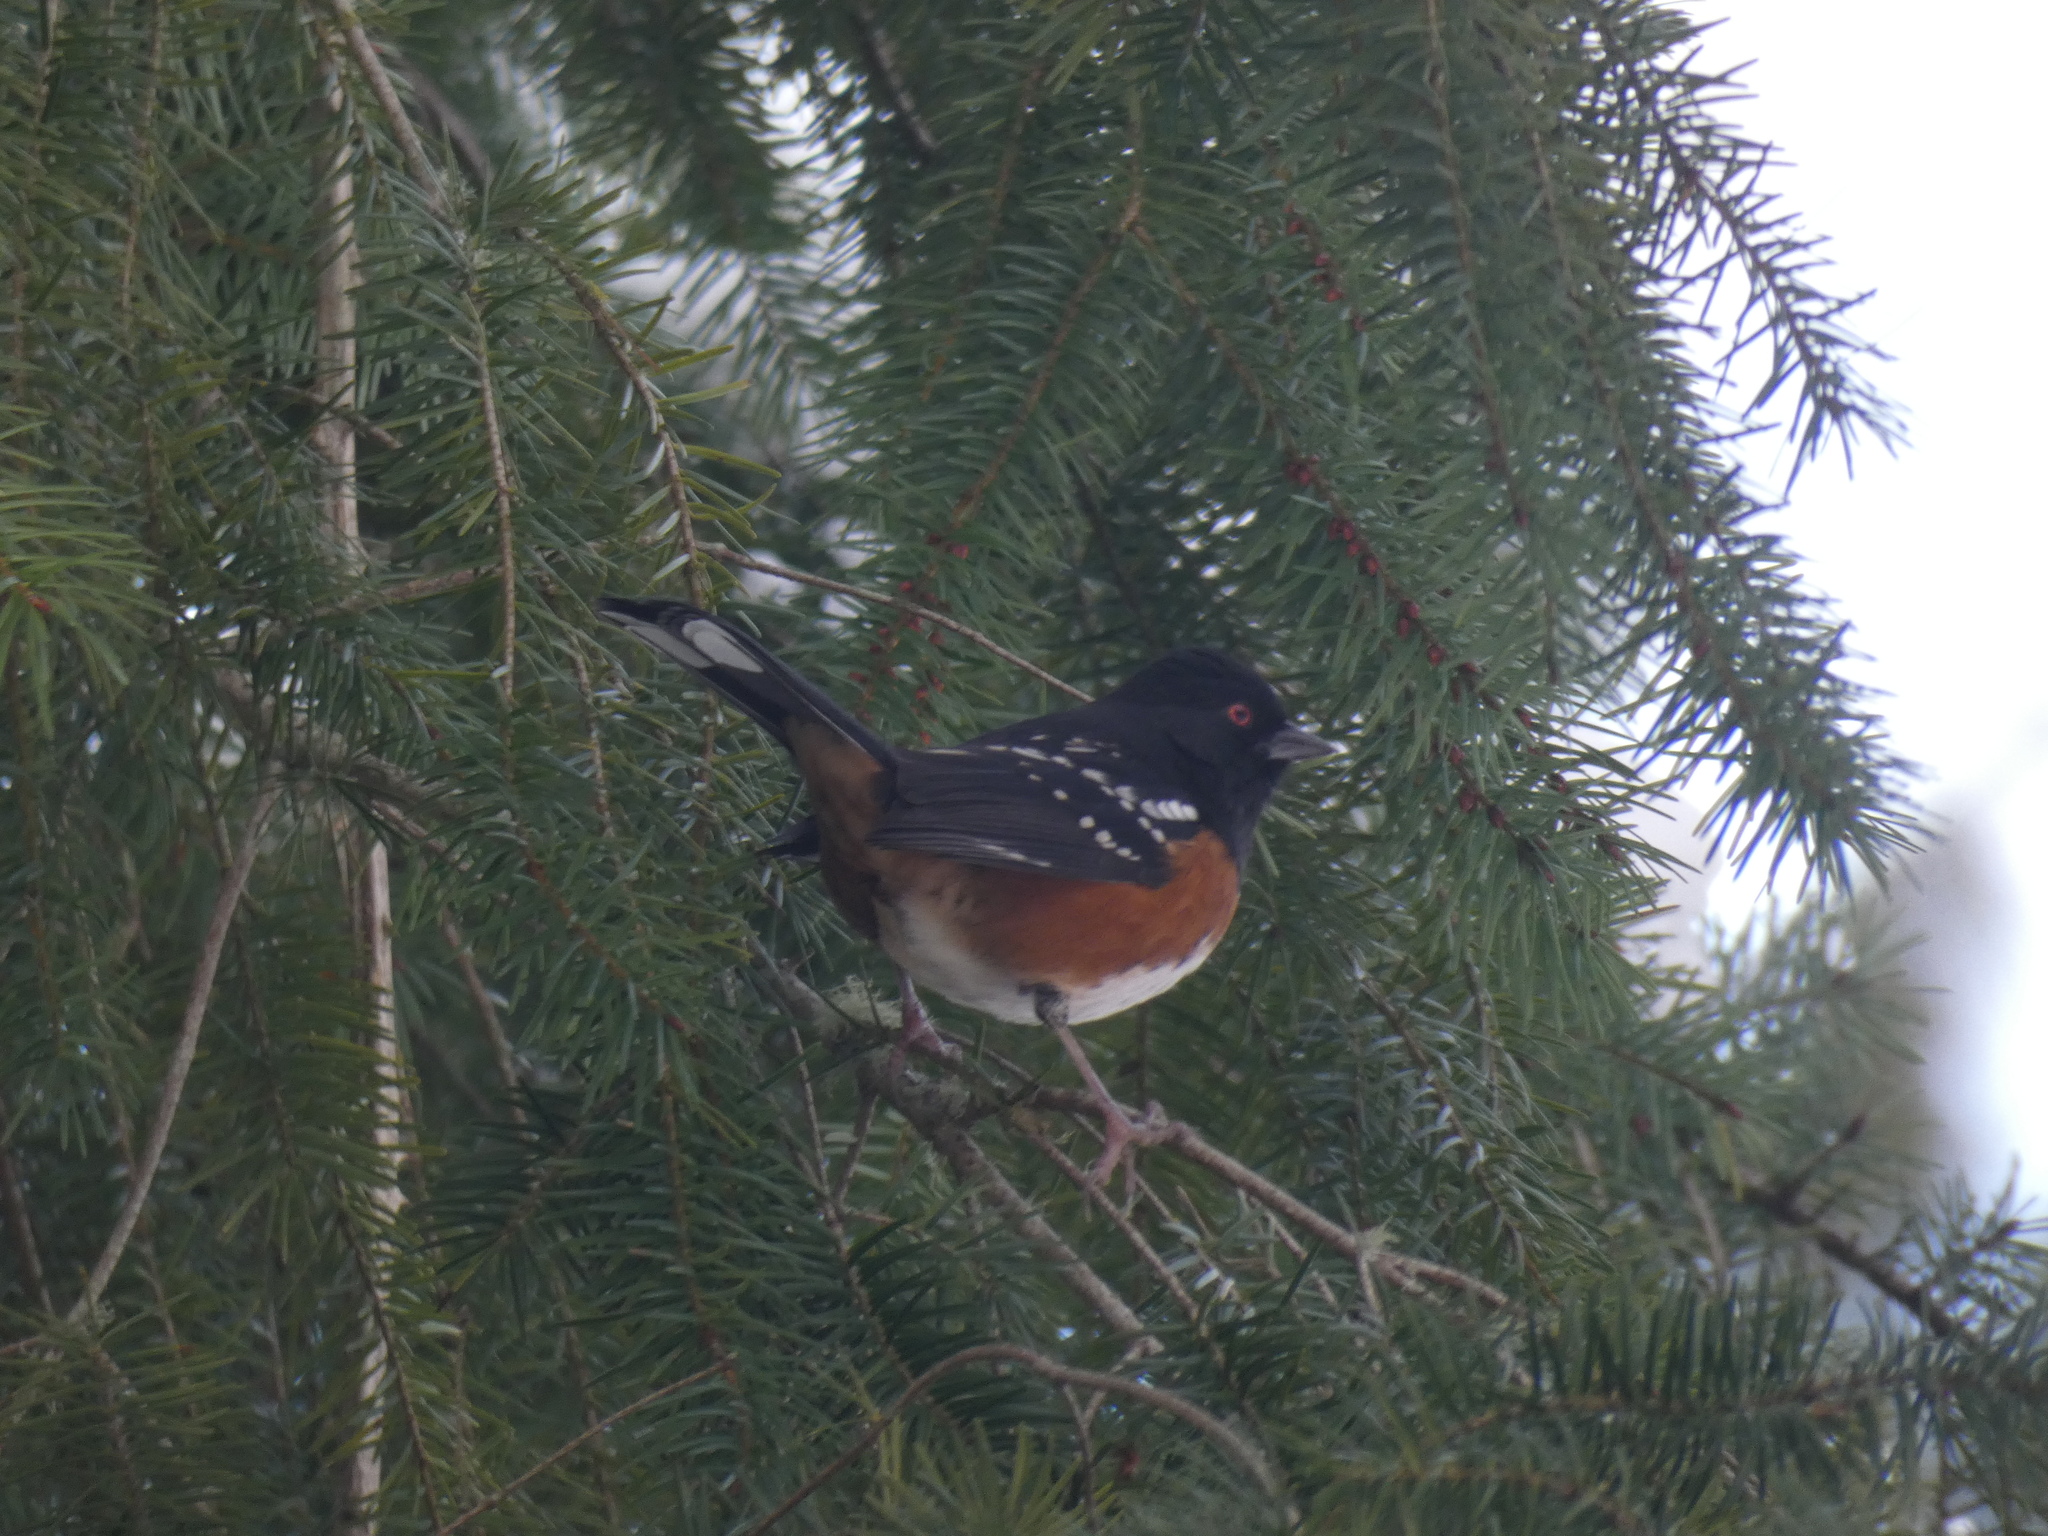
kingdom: Animalia
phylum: Chordata
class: Aves
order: Passeriformes
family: Passerellidae
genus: Pipilo
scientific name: Pipilo maculatus
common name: Spotted towhee
